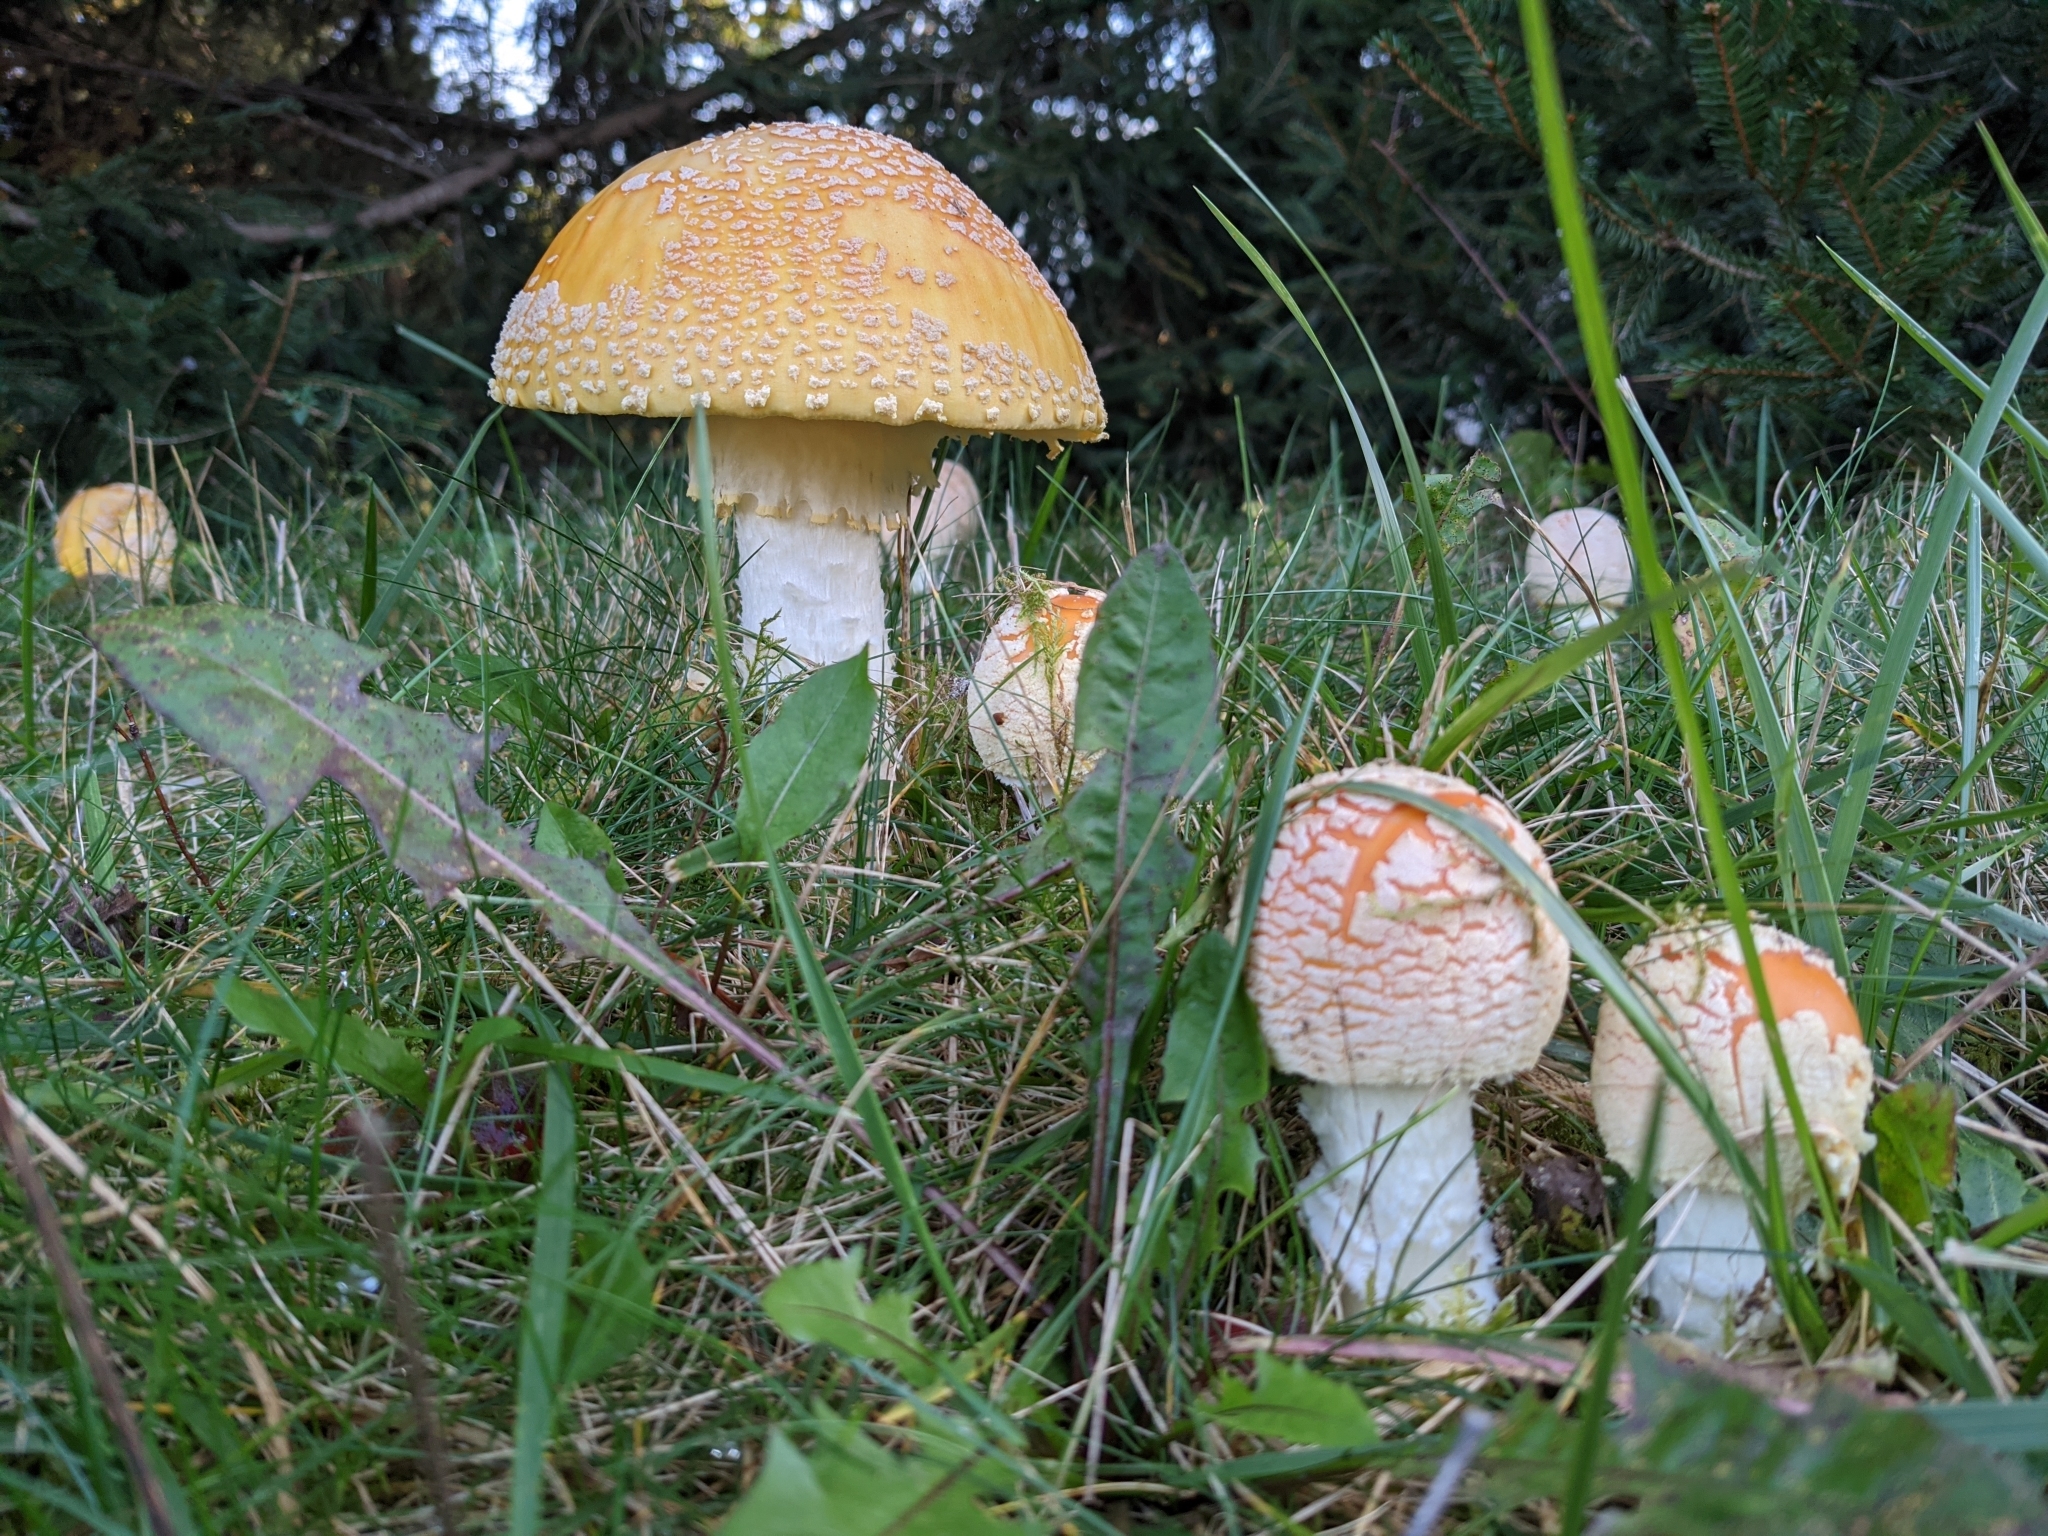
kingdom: Fungi
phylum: Basidiomycota
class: Agaricomycetes
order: Agaricales
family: Amanitaceae
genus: Amanita
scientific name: Amanita muscaria
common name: Fly agaric
